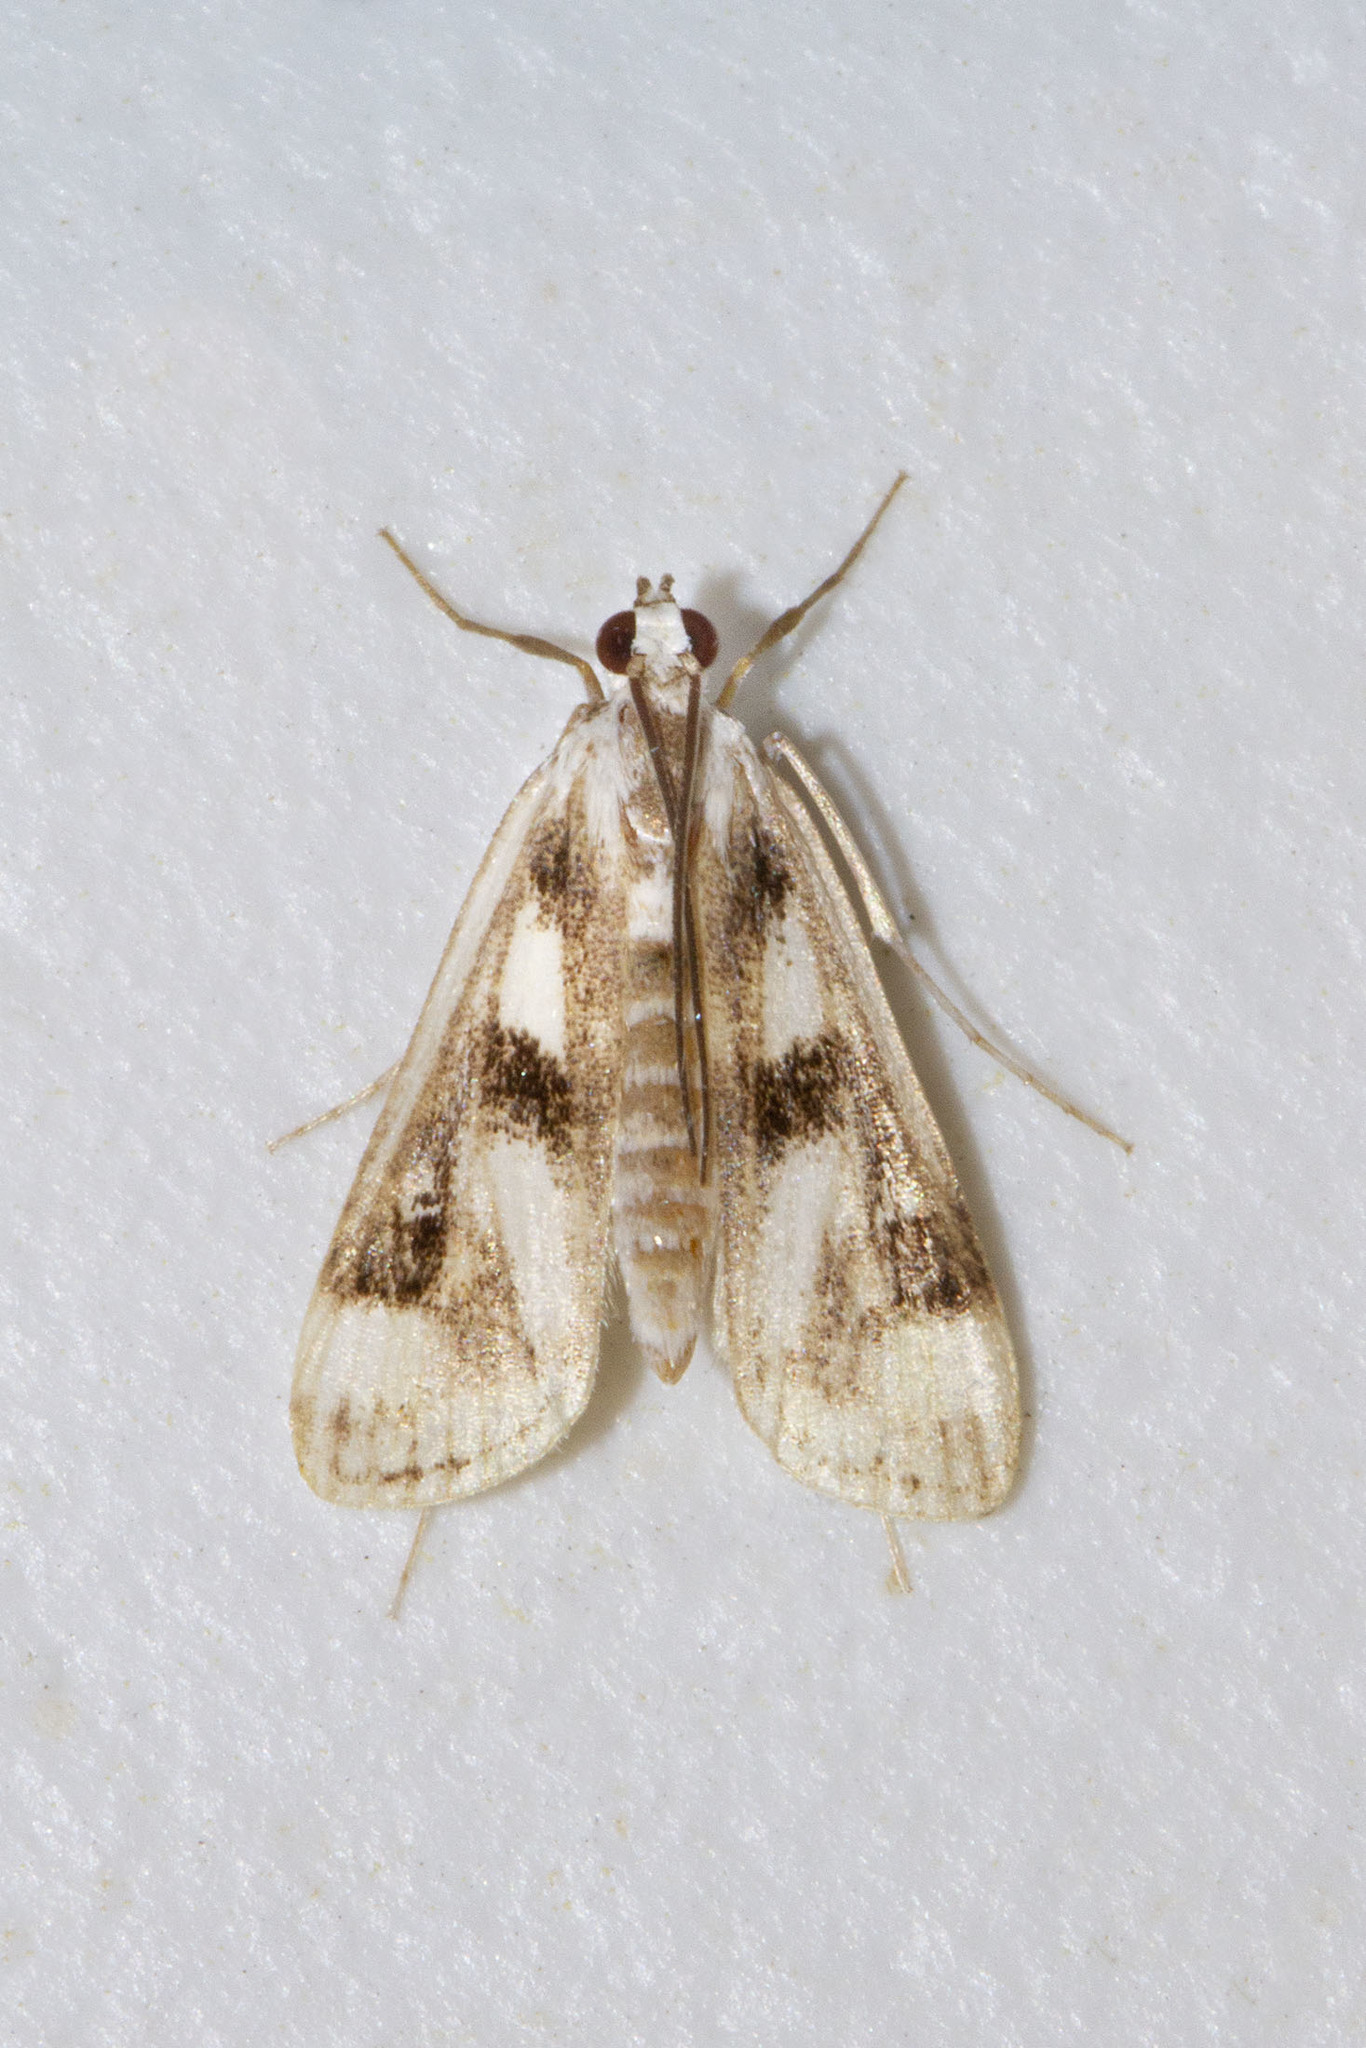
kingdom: Animalia
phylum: Arthropoda
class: Insecta
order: Lepidoptera
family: Crambidae
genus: Parapoynx
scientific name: Parapoynx maculalis
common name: Polymorphic pondweed moth
